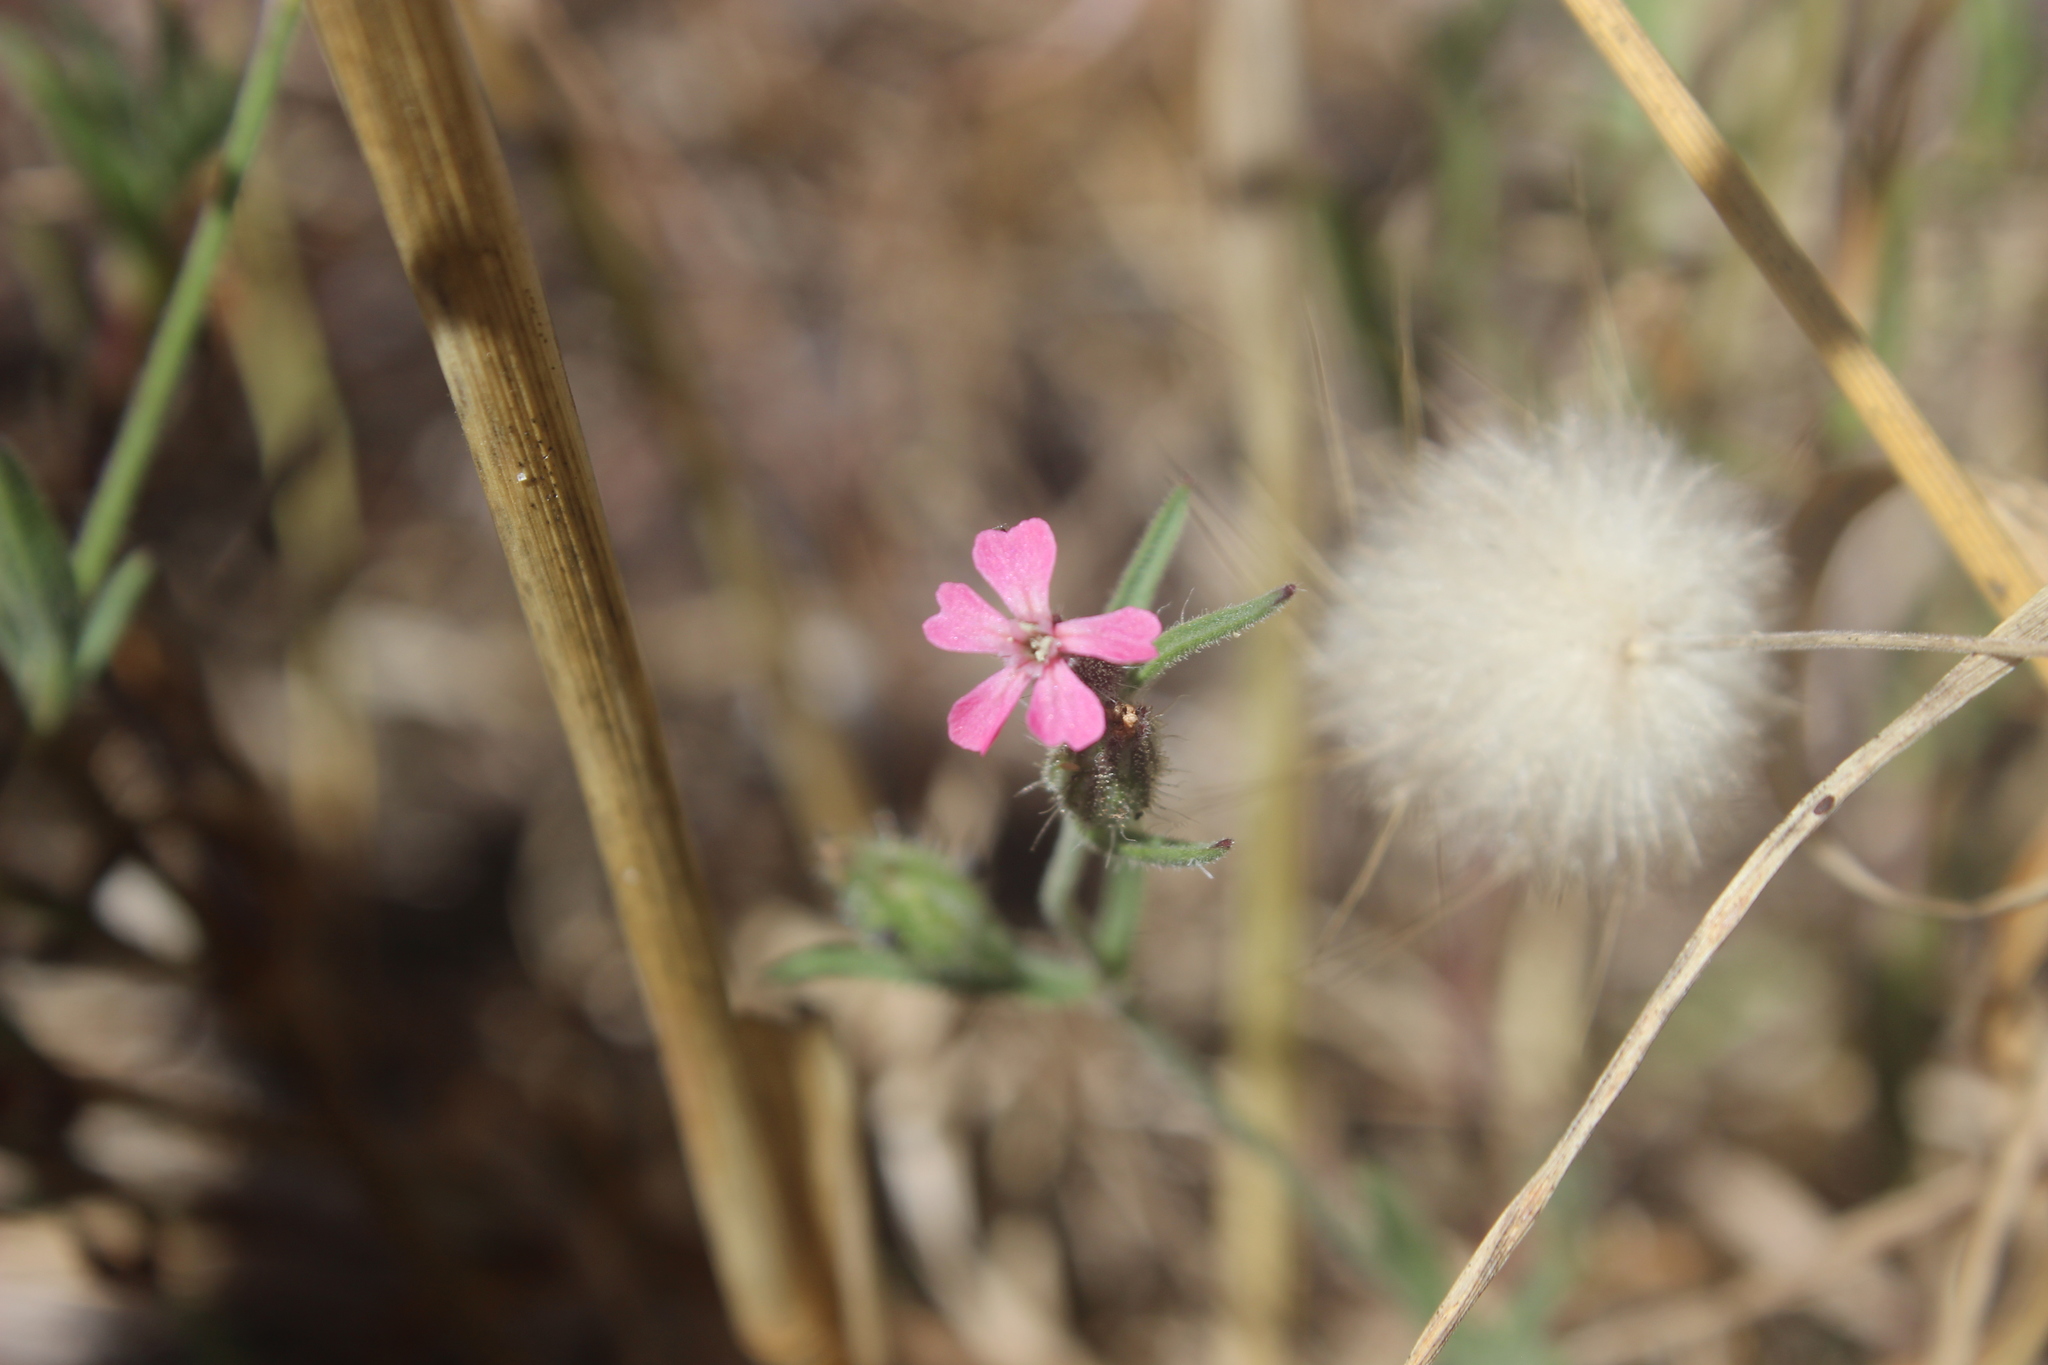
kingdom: Plantae
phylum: Tracheophyta
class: Magnoliopsida
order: Caryophyllales
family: Caryophyllaceae
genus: Silene
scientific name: Silene gallica
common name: Small-flowered catchfly
